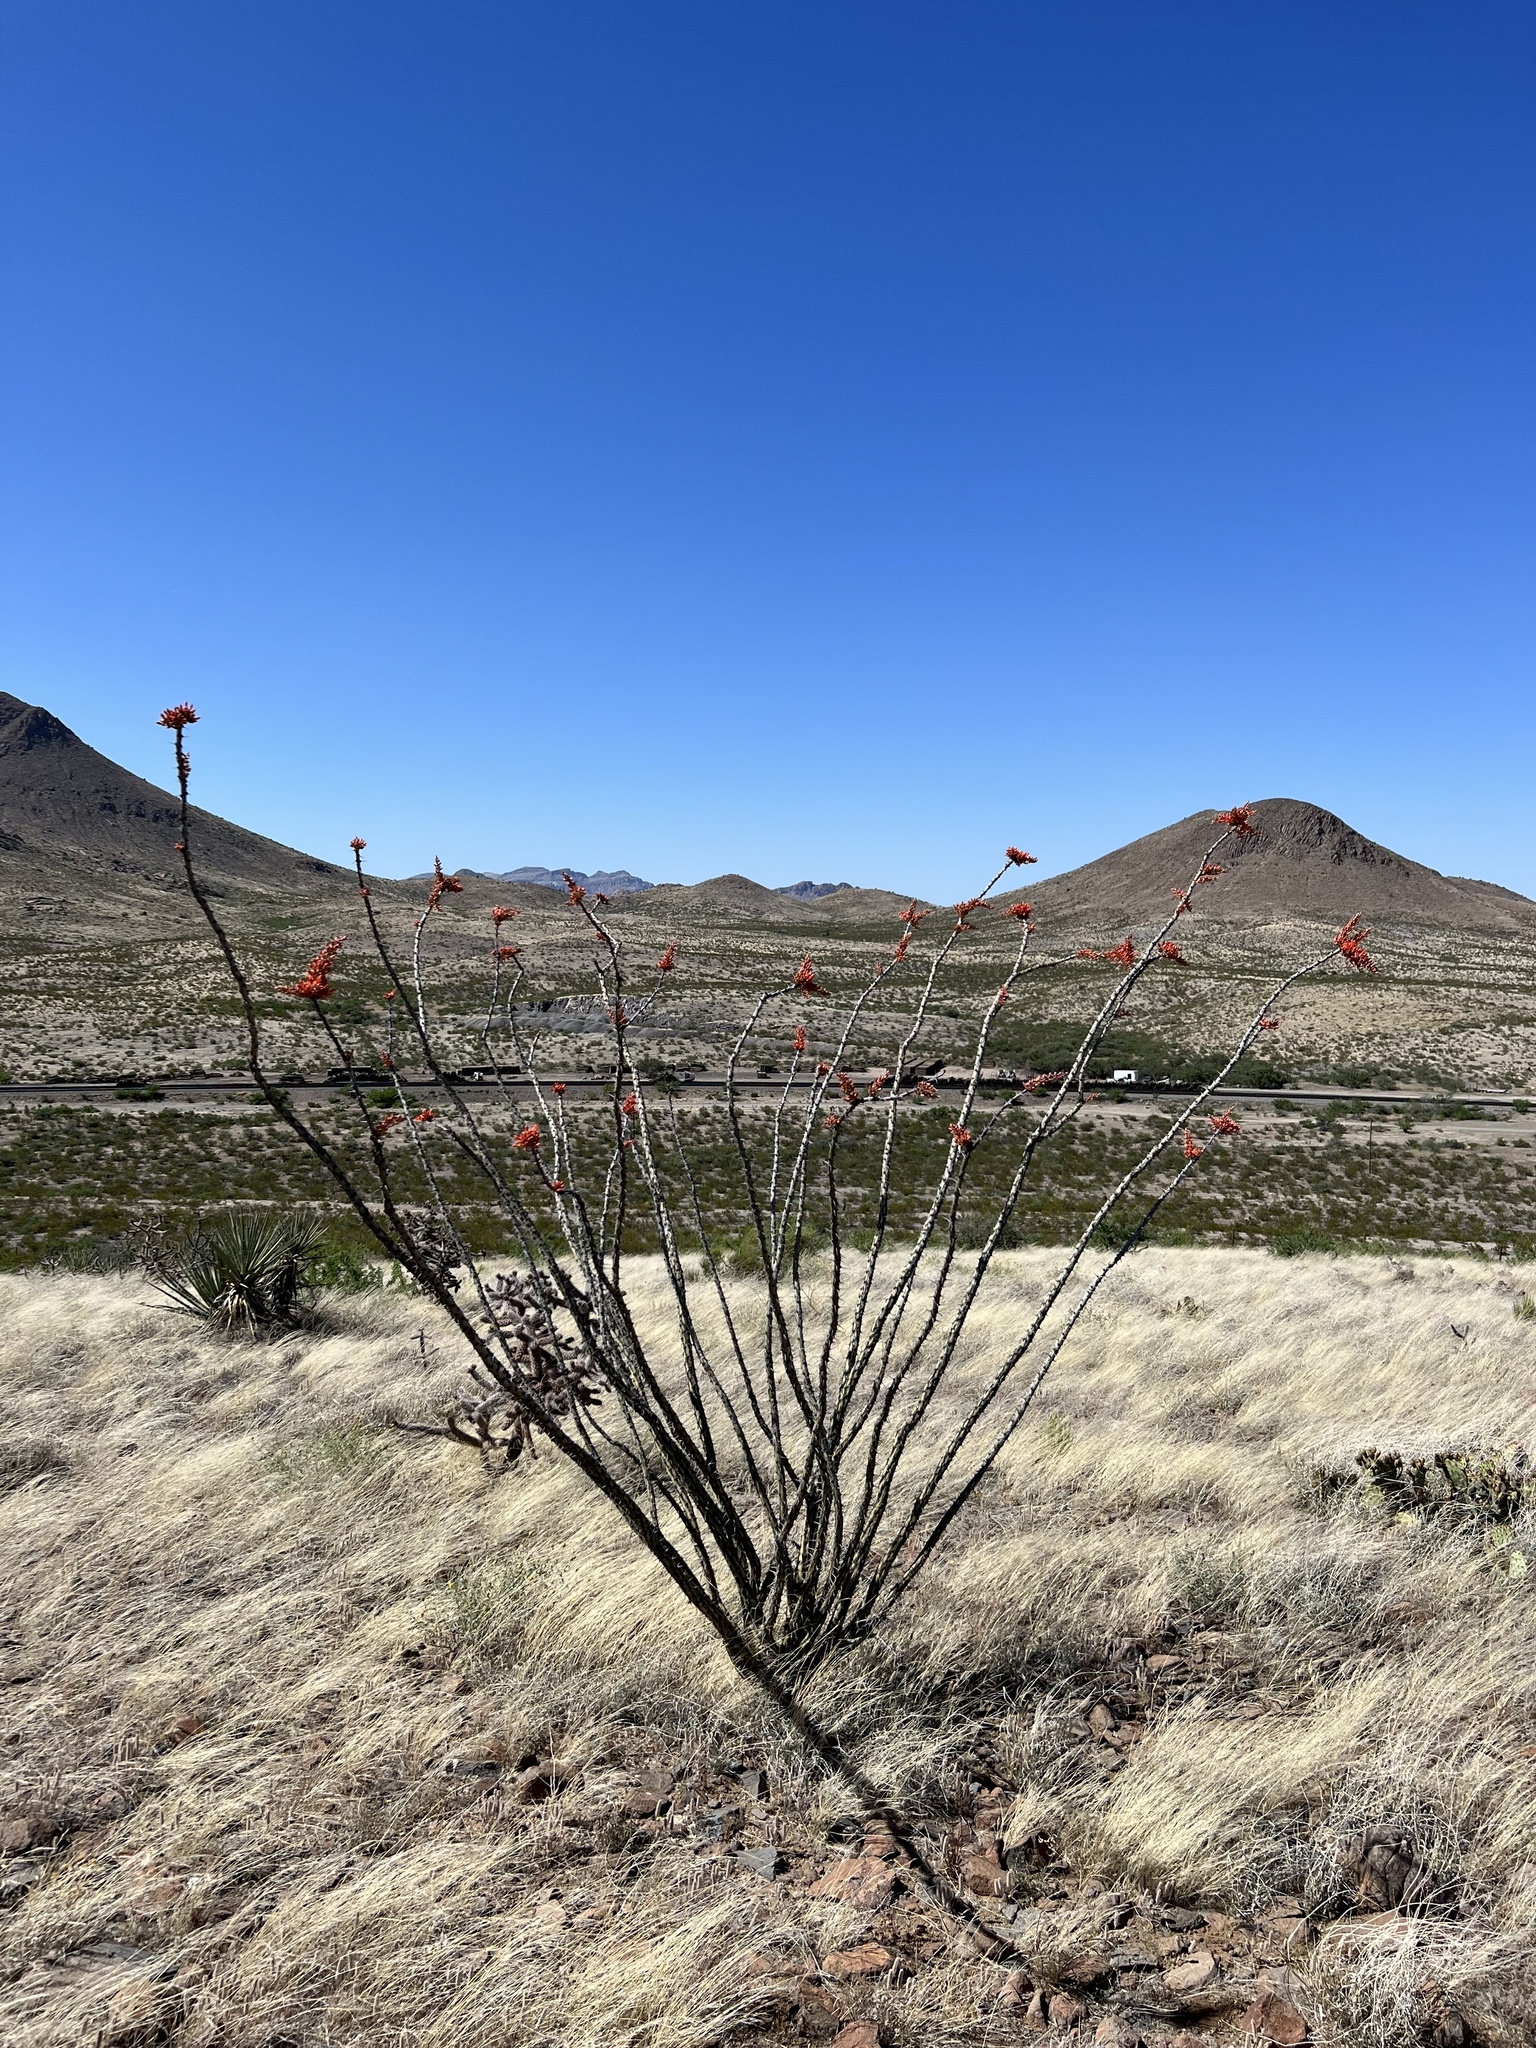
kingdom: Plantae
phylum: Tracheophyta
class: Magnoliopsida
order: Ericales
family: Fouquieriaceae
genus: Fouquieria
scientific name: Fouquieria splendens
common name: Vine-cactus
